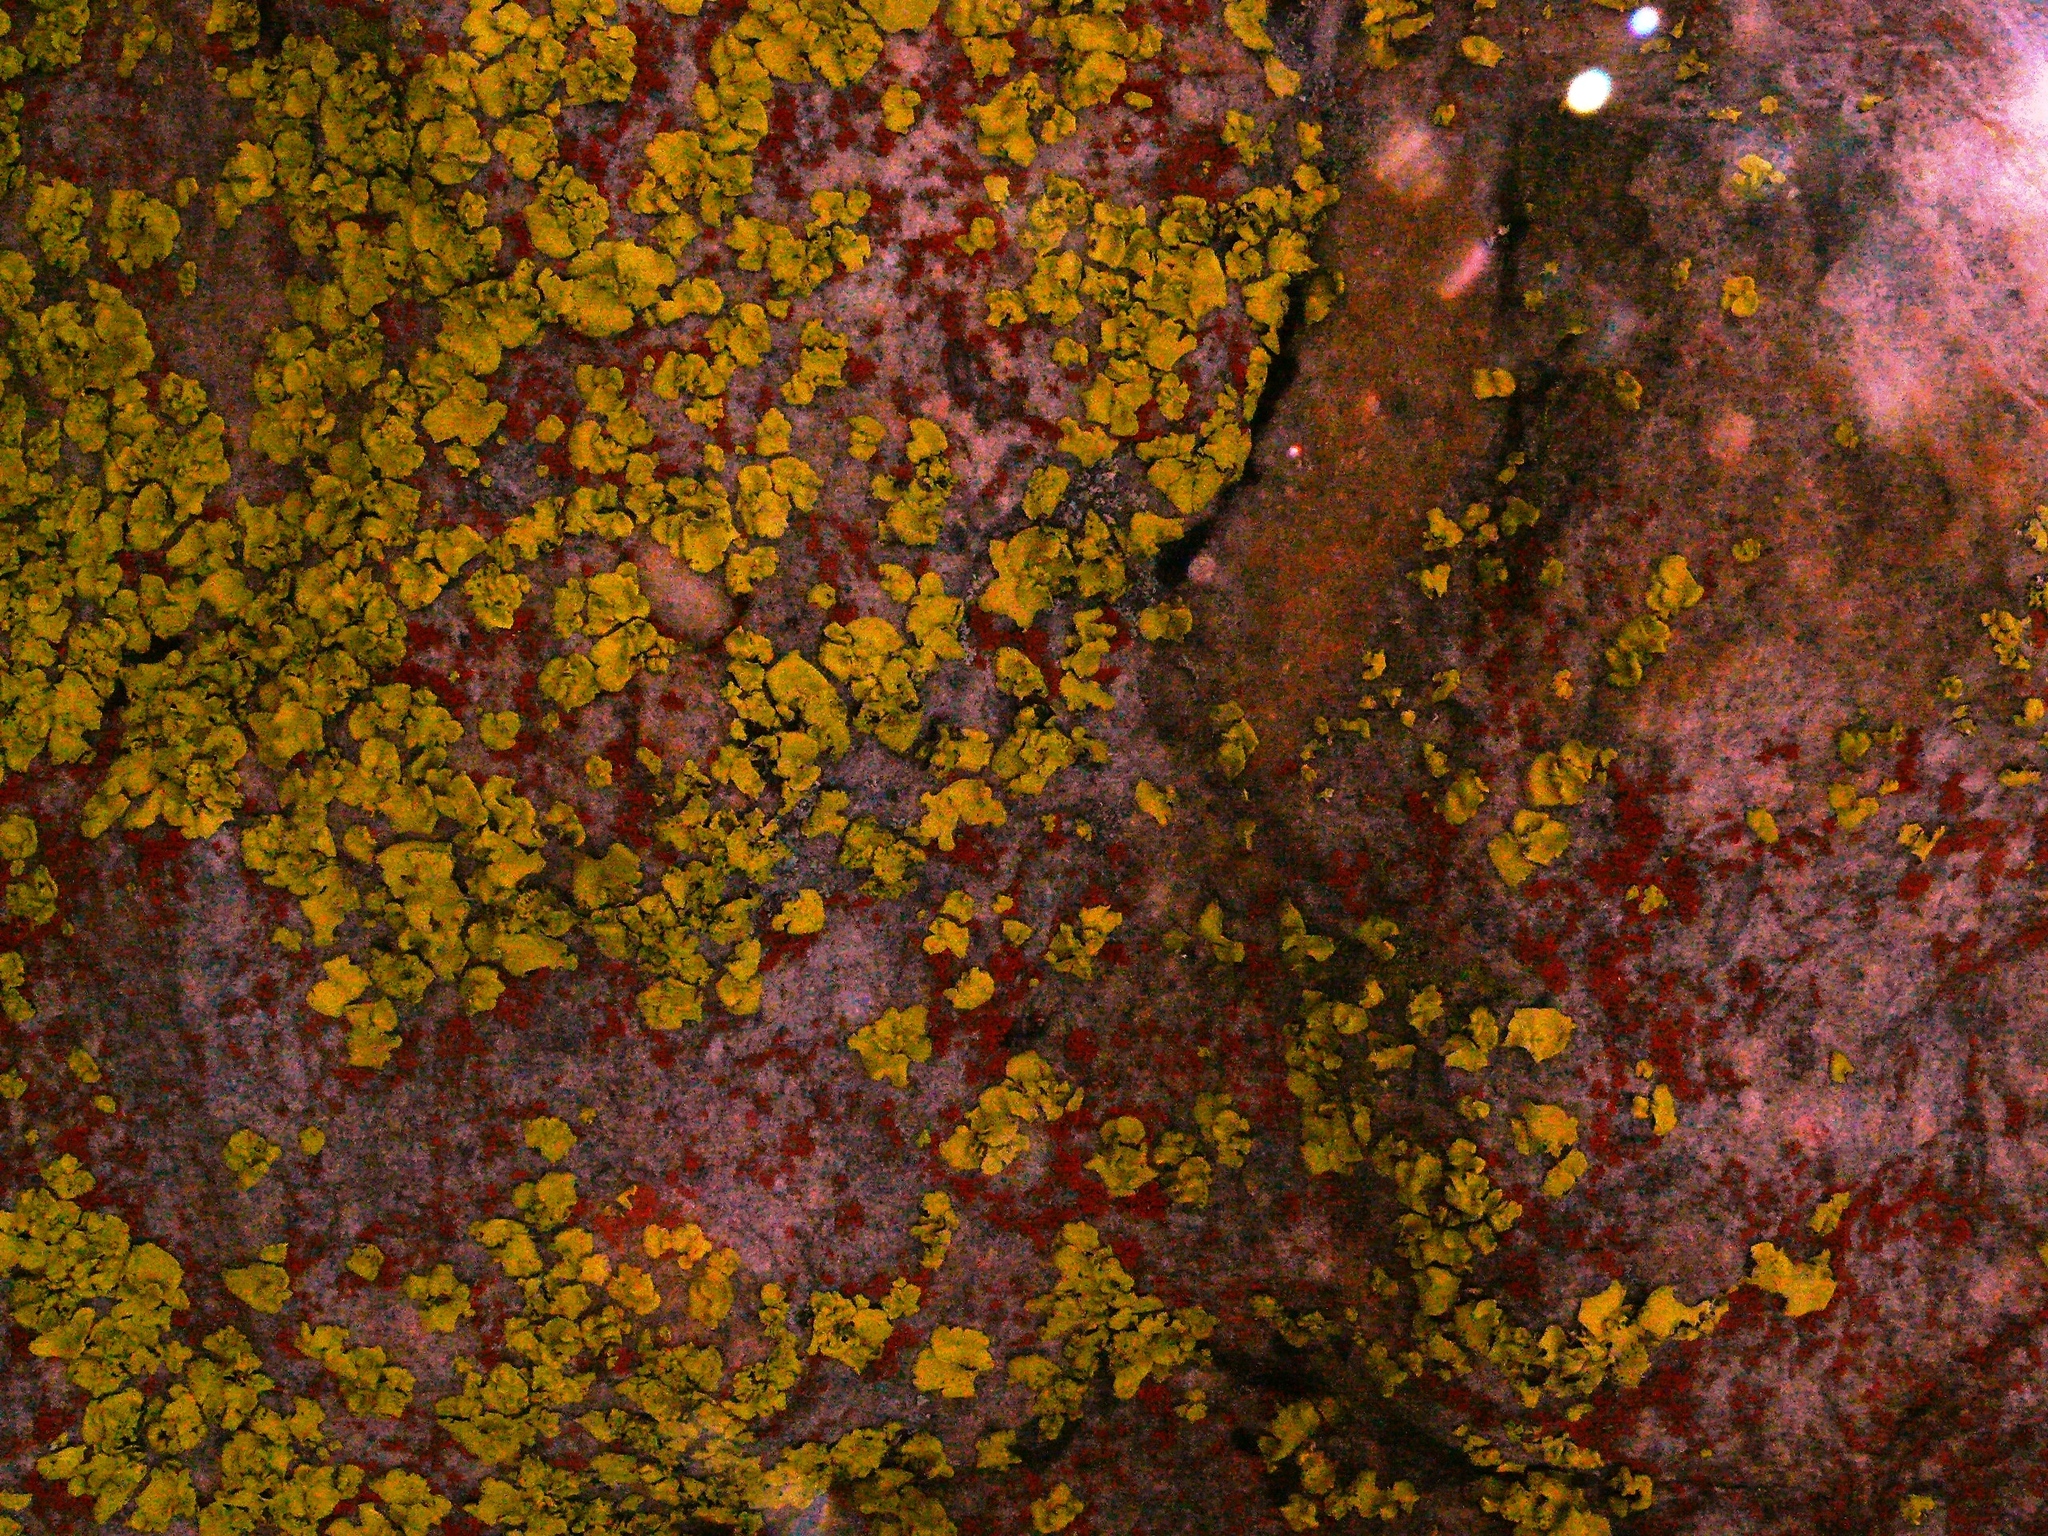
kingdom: Fungi
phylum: Ascomycota
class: Lecanoromycetes
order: Caliciales
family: Caliciaceae
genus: Dermatiscum
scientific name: Dermatiscum thunbergii
